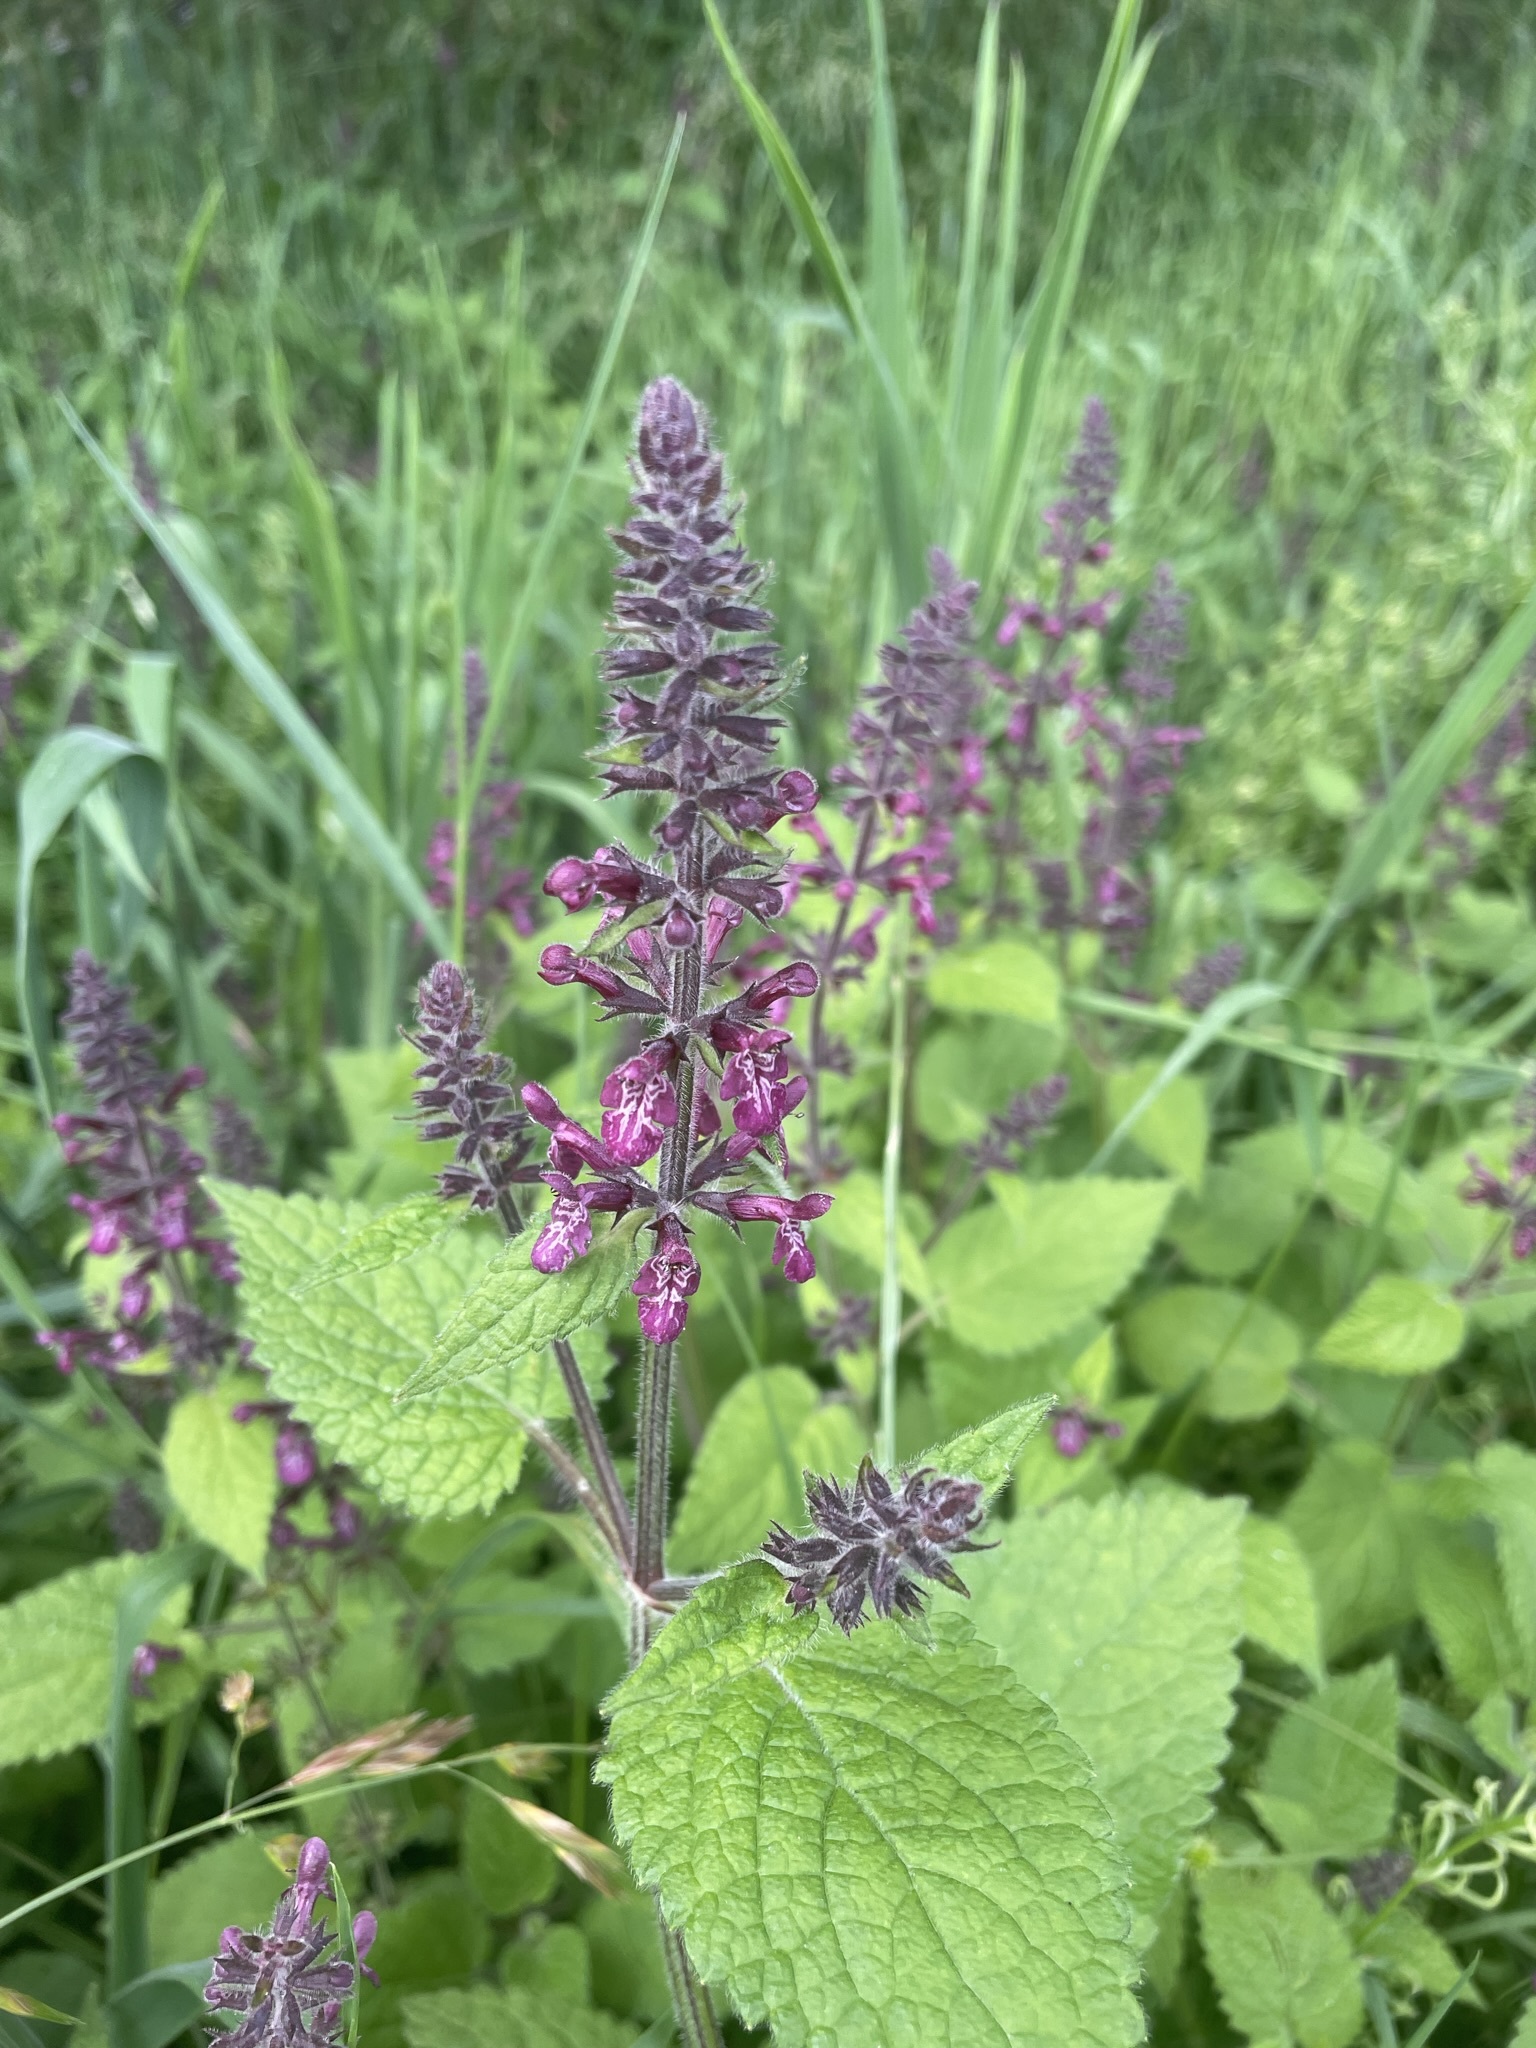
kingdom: Plantae
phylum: Tracheophyta
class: Magnoliopsida
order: Lamiales
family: Lamiaceae
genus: Stachys
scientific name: Stachys sylvatica
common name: Hedge woundwort
